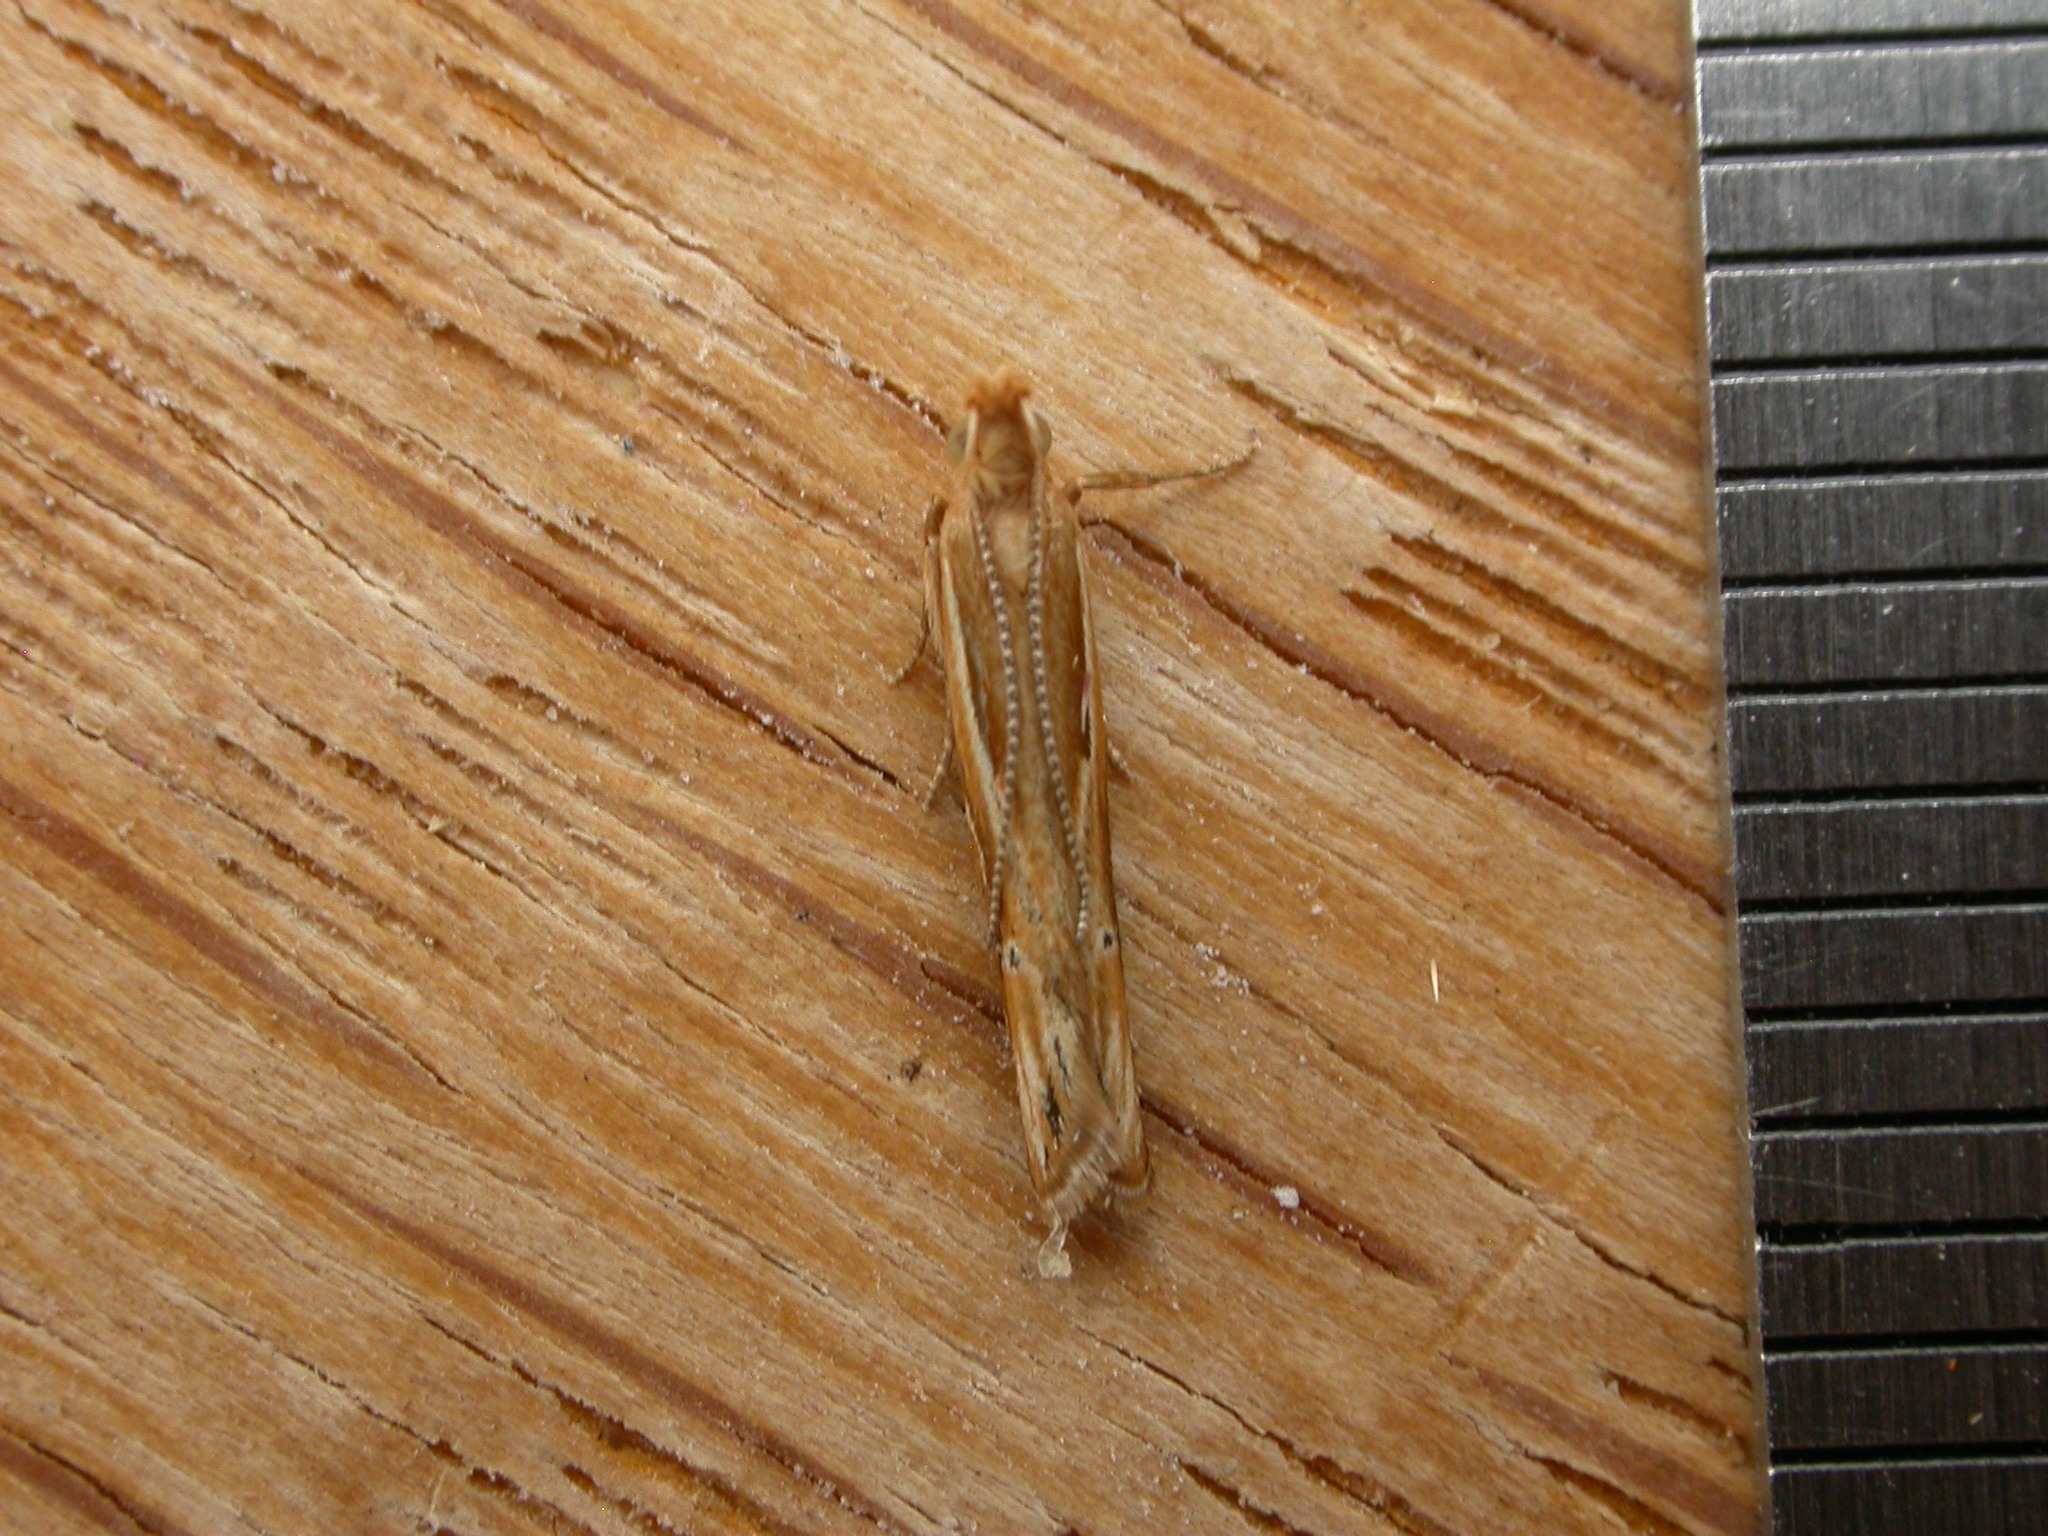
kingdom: Animalia
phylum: Arthropoda
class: Insecta
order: Lepidoptera
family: Depressariidae
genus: Eutorna
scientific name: Eutorna tricasis
